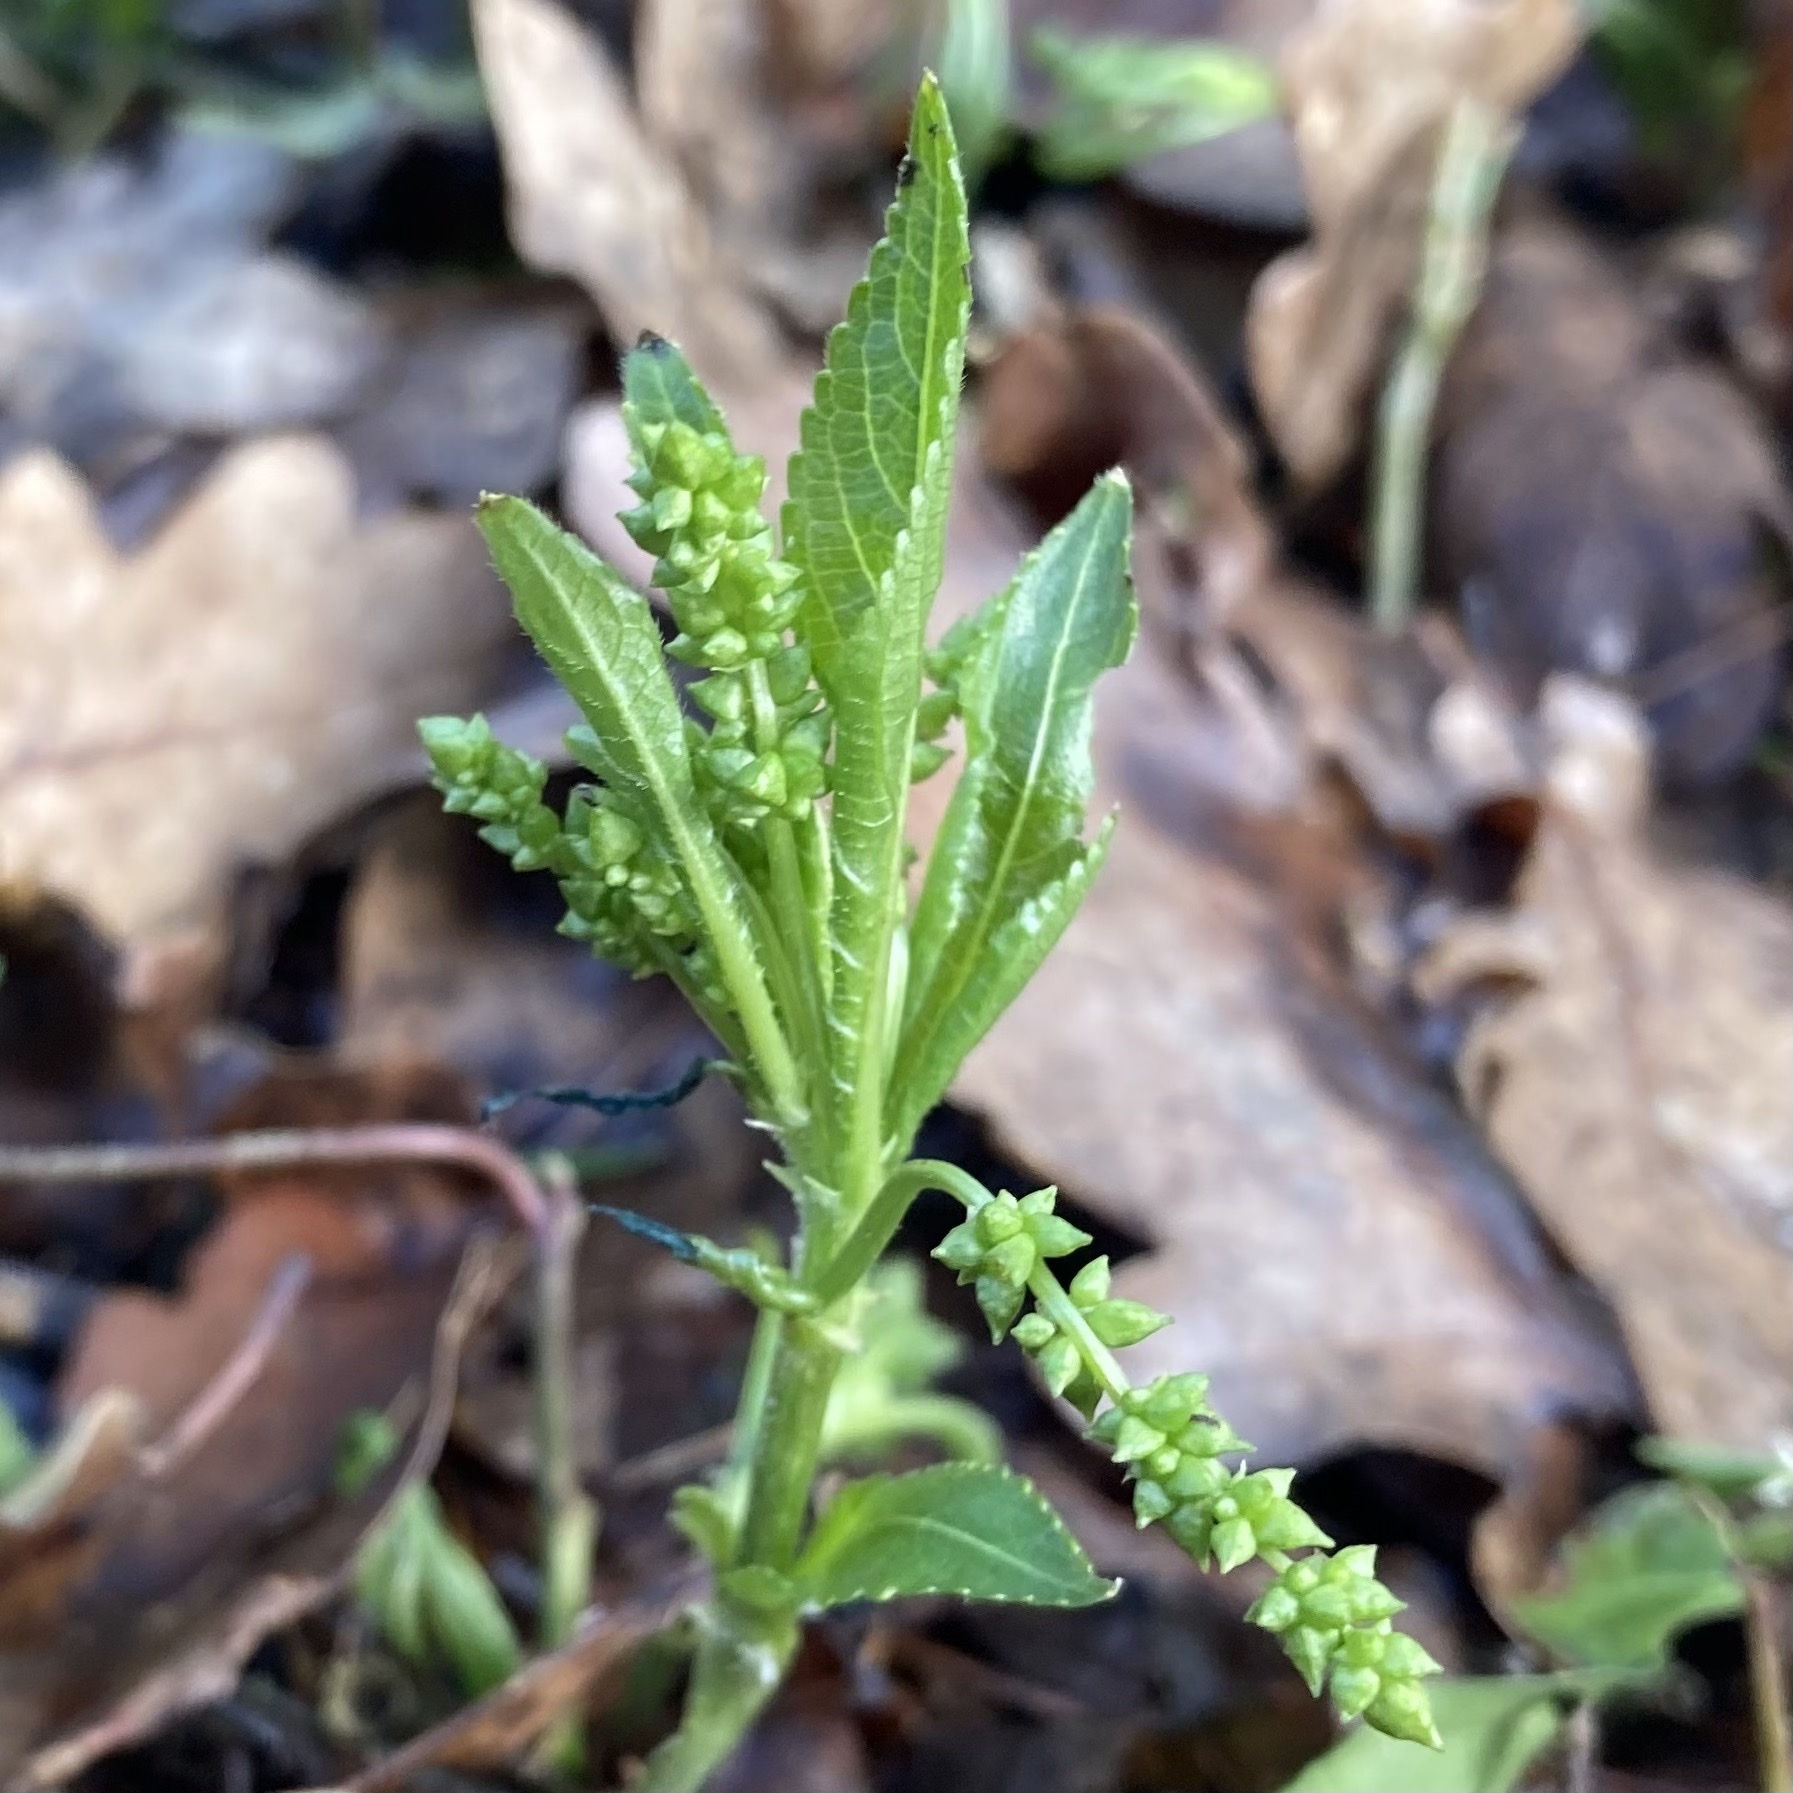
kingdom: Plantae
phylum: Tracheophyta
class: Magnoliopsida
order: Malpighiales
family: Euphorbiaceae
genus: Mercurialis
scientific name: Mercurialis perennis
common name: Dog mercury
